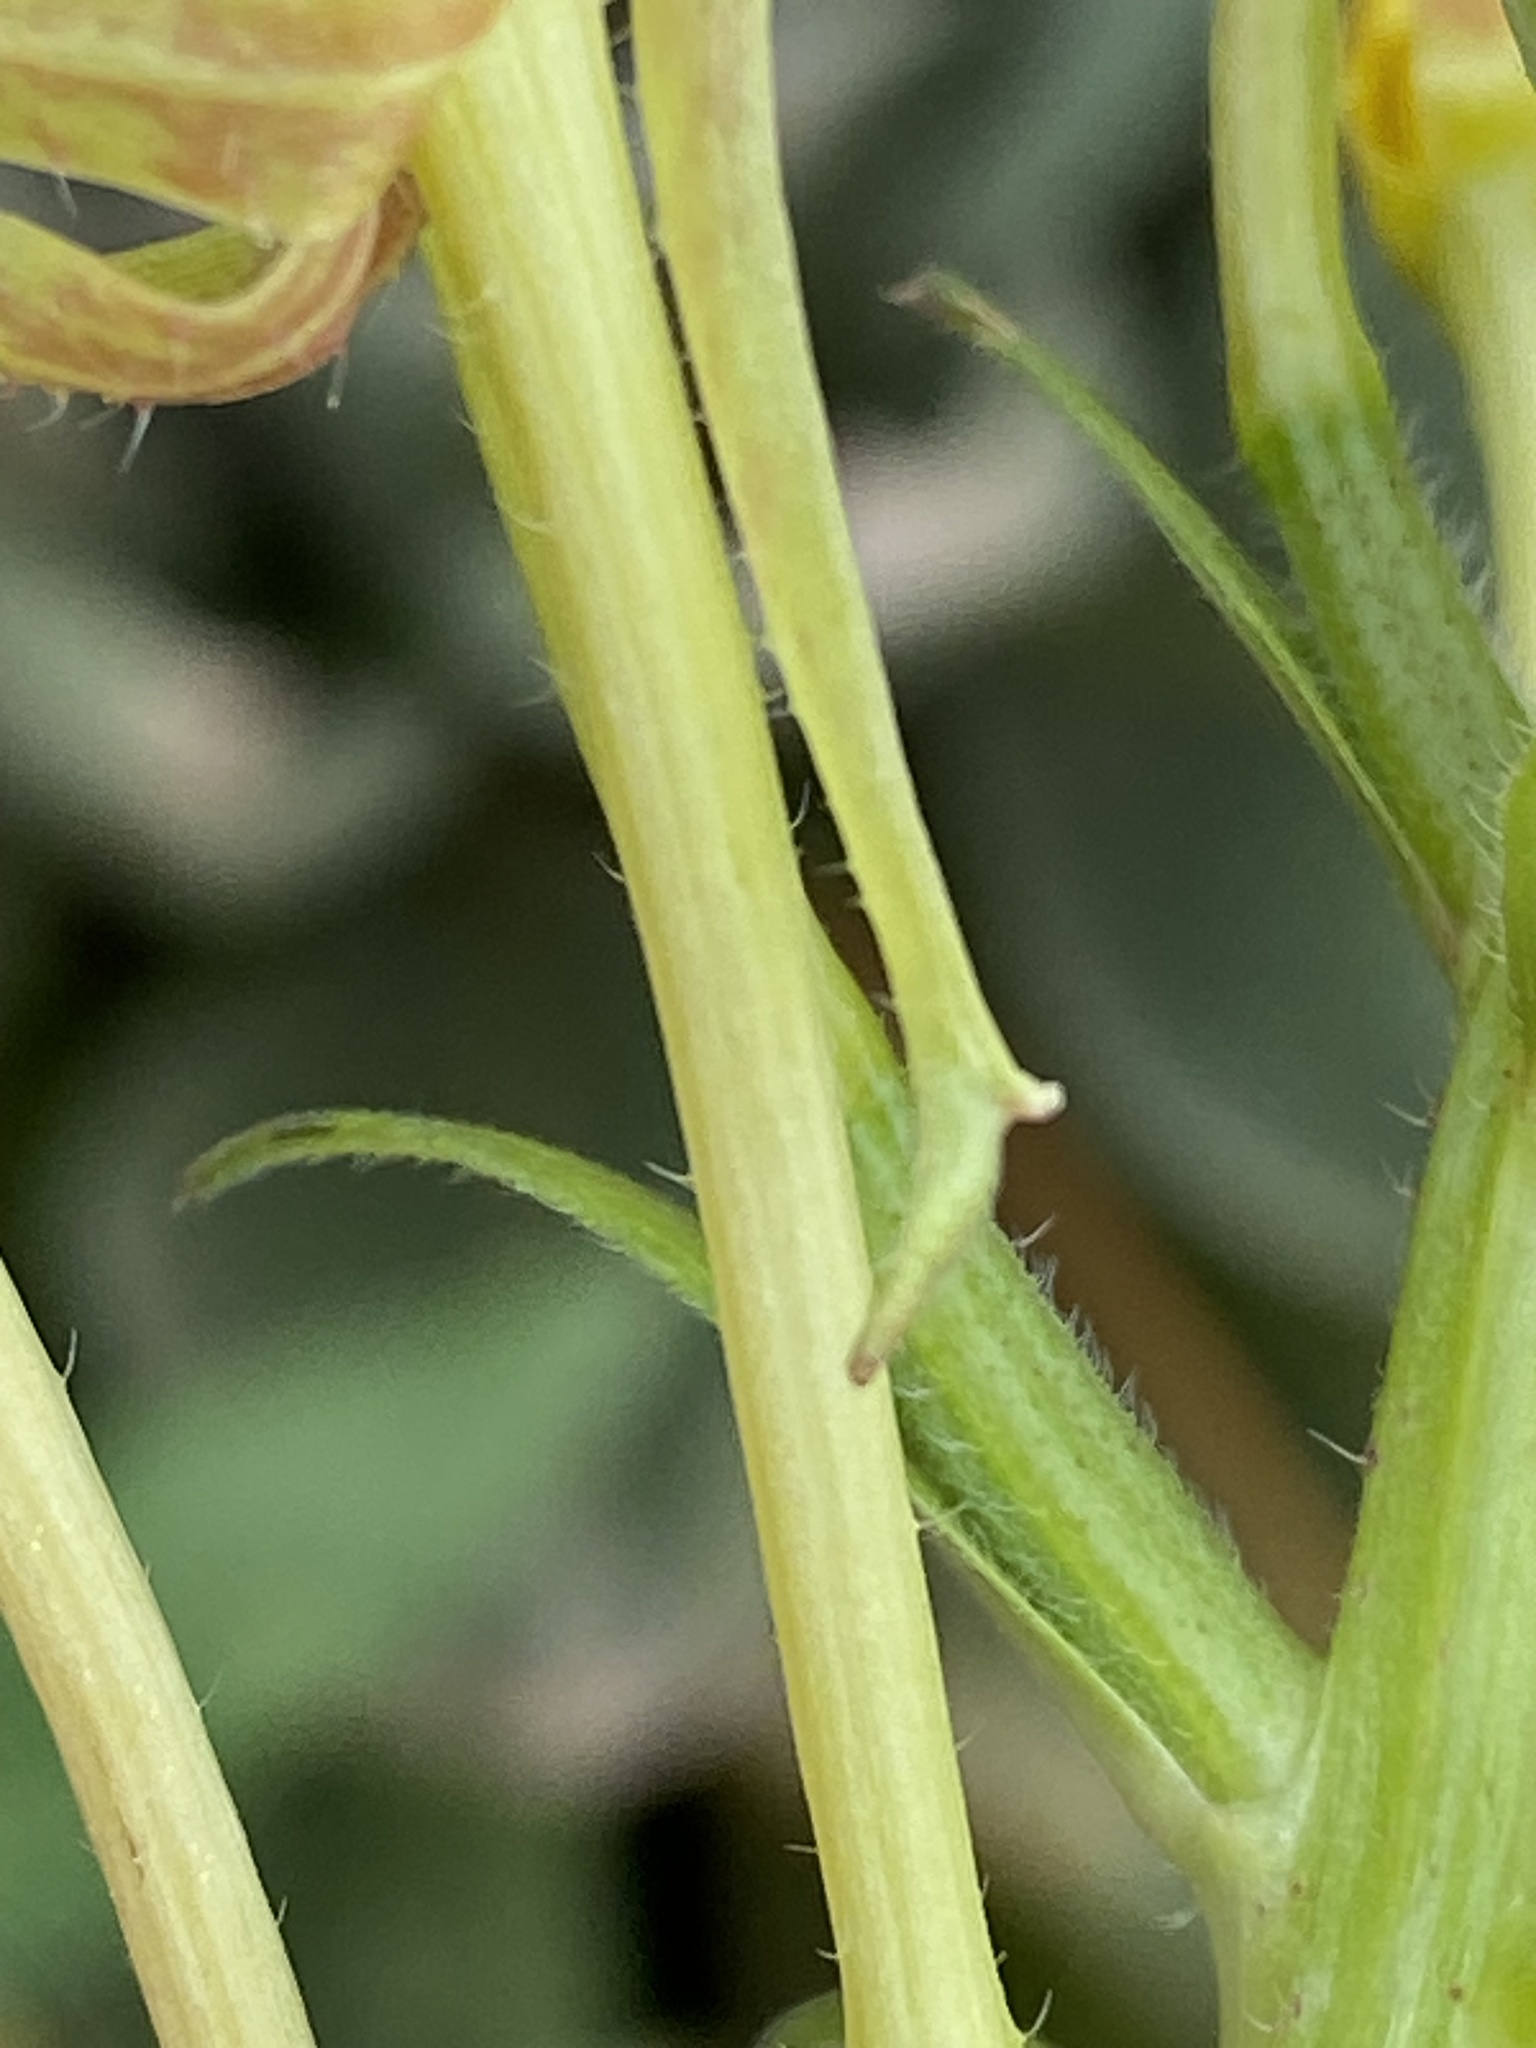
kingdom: Plantae
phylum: Tracheophyta
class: Magnoliopsida
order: Myrtales
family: Onagraceae
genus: Oenothera
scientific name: Oenothera parviflora
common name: Least evening-primrose
